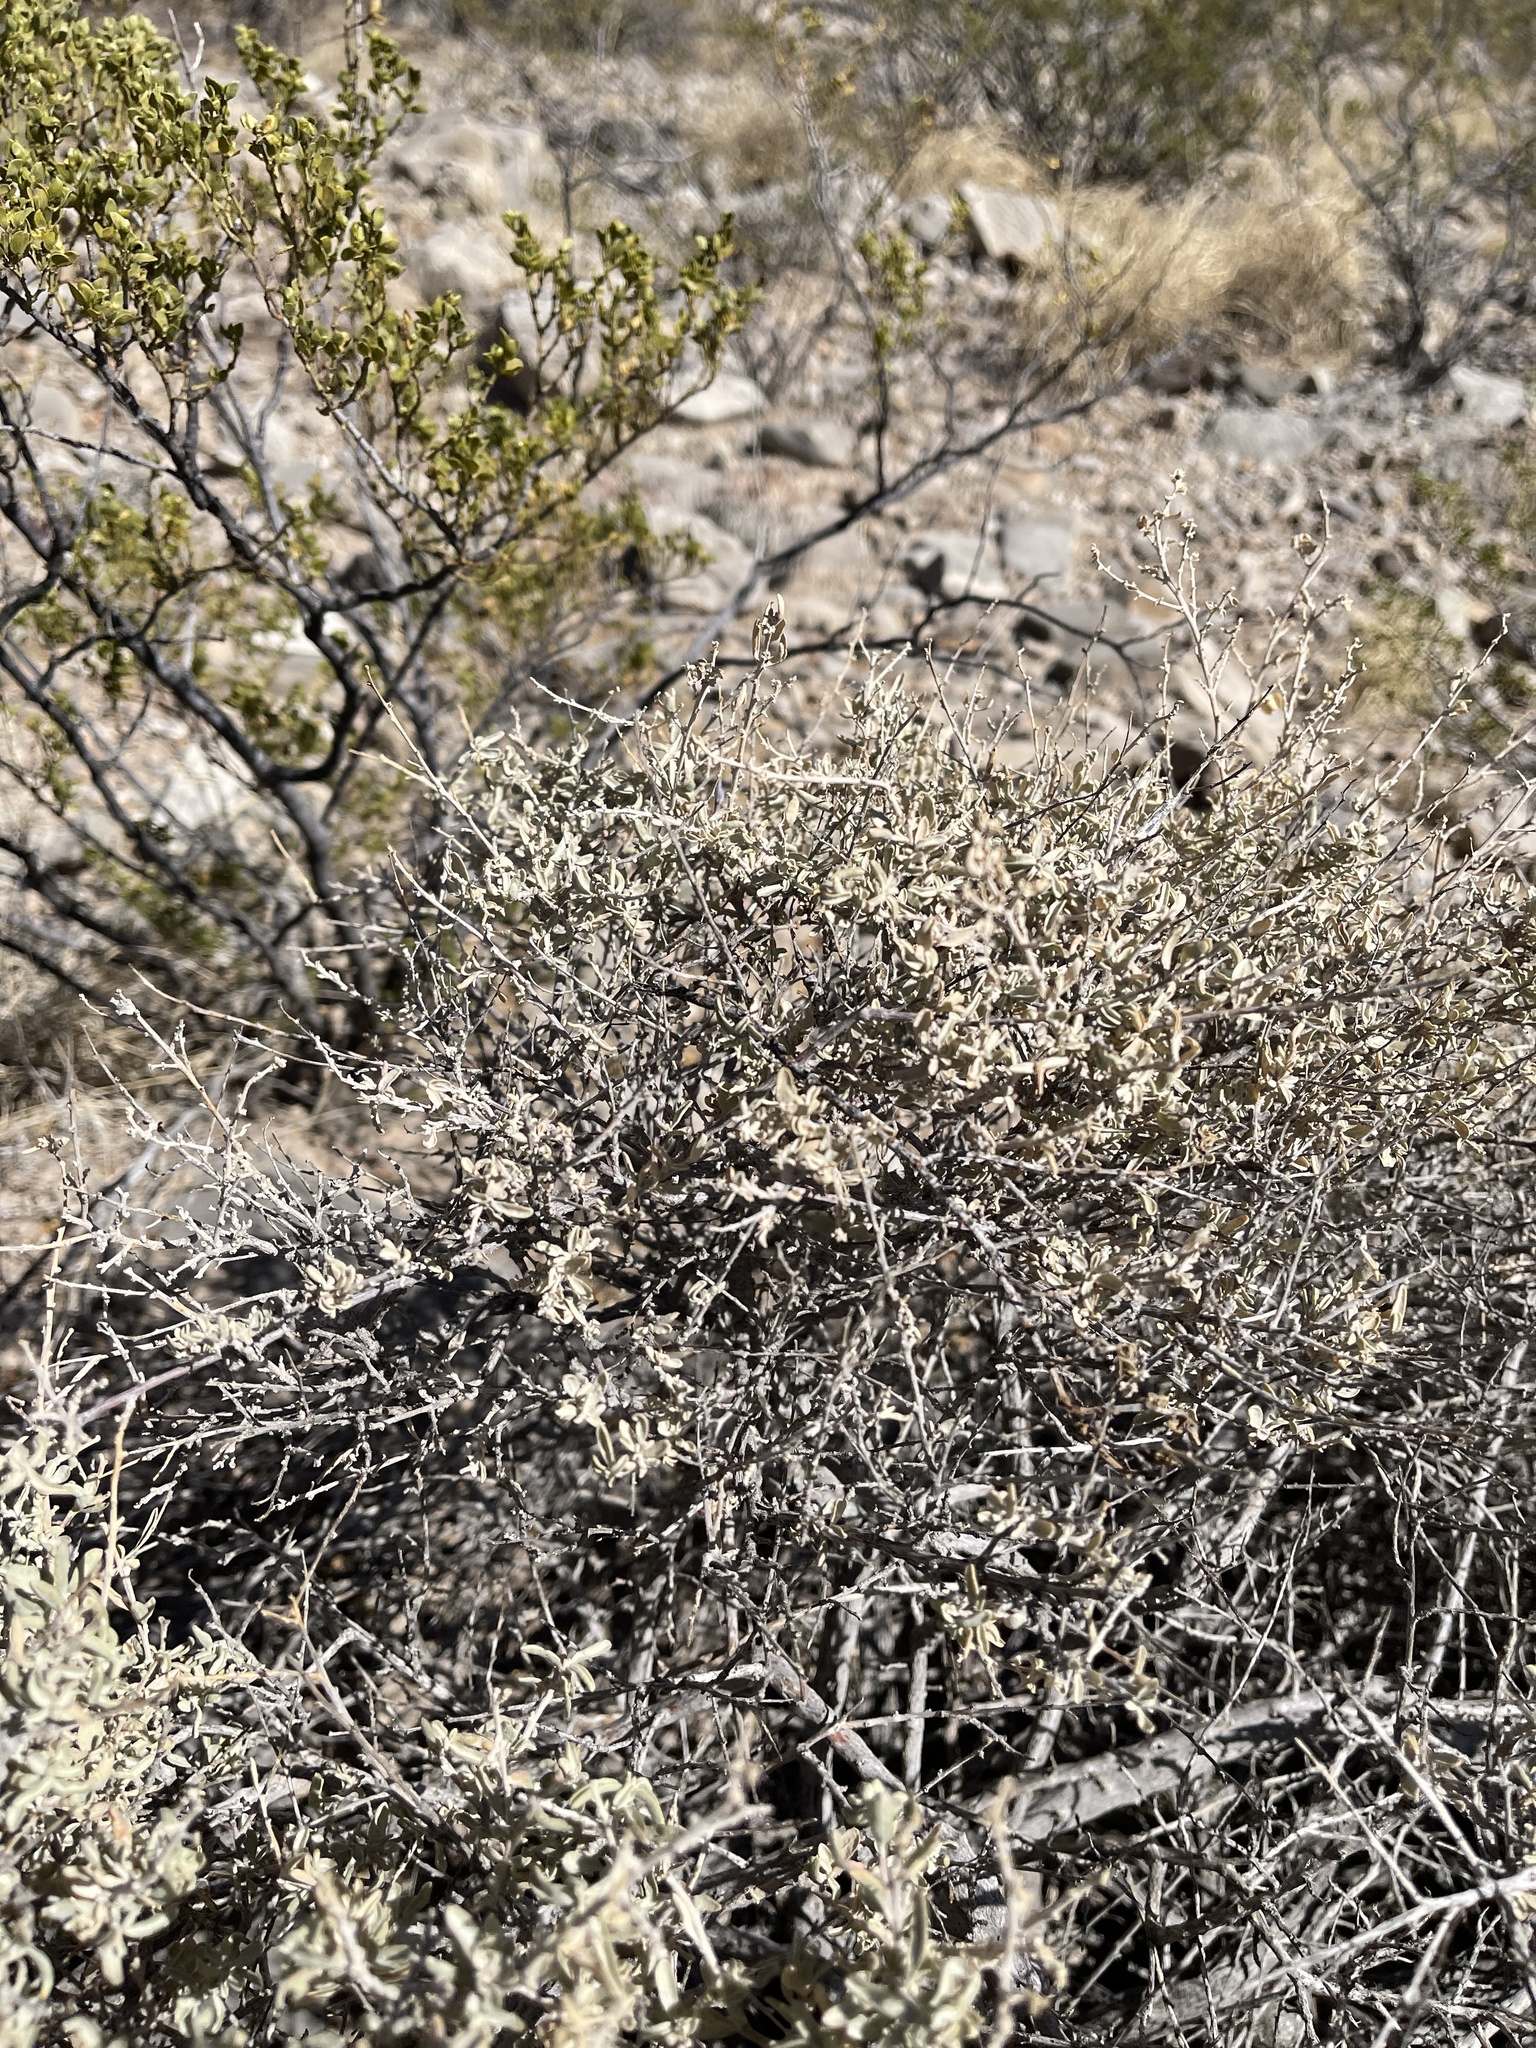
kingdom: Plantae
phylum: Tracheophyta
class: Magnoliopsida
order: Caryophyllales
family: Amaranthaceae
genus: Atriplex
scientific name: Atriplex canescens
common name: Four-wing saltbush
